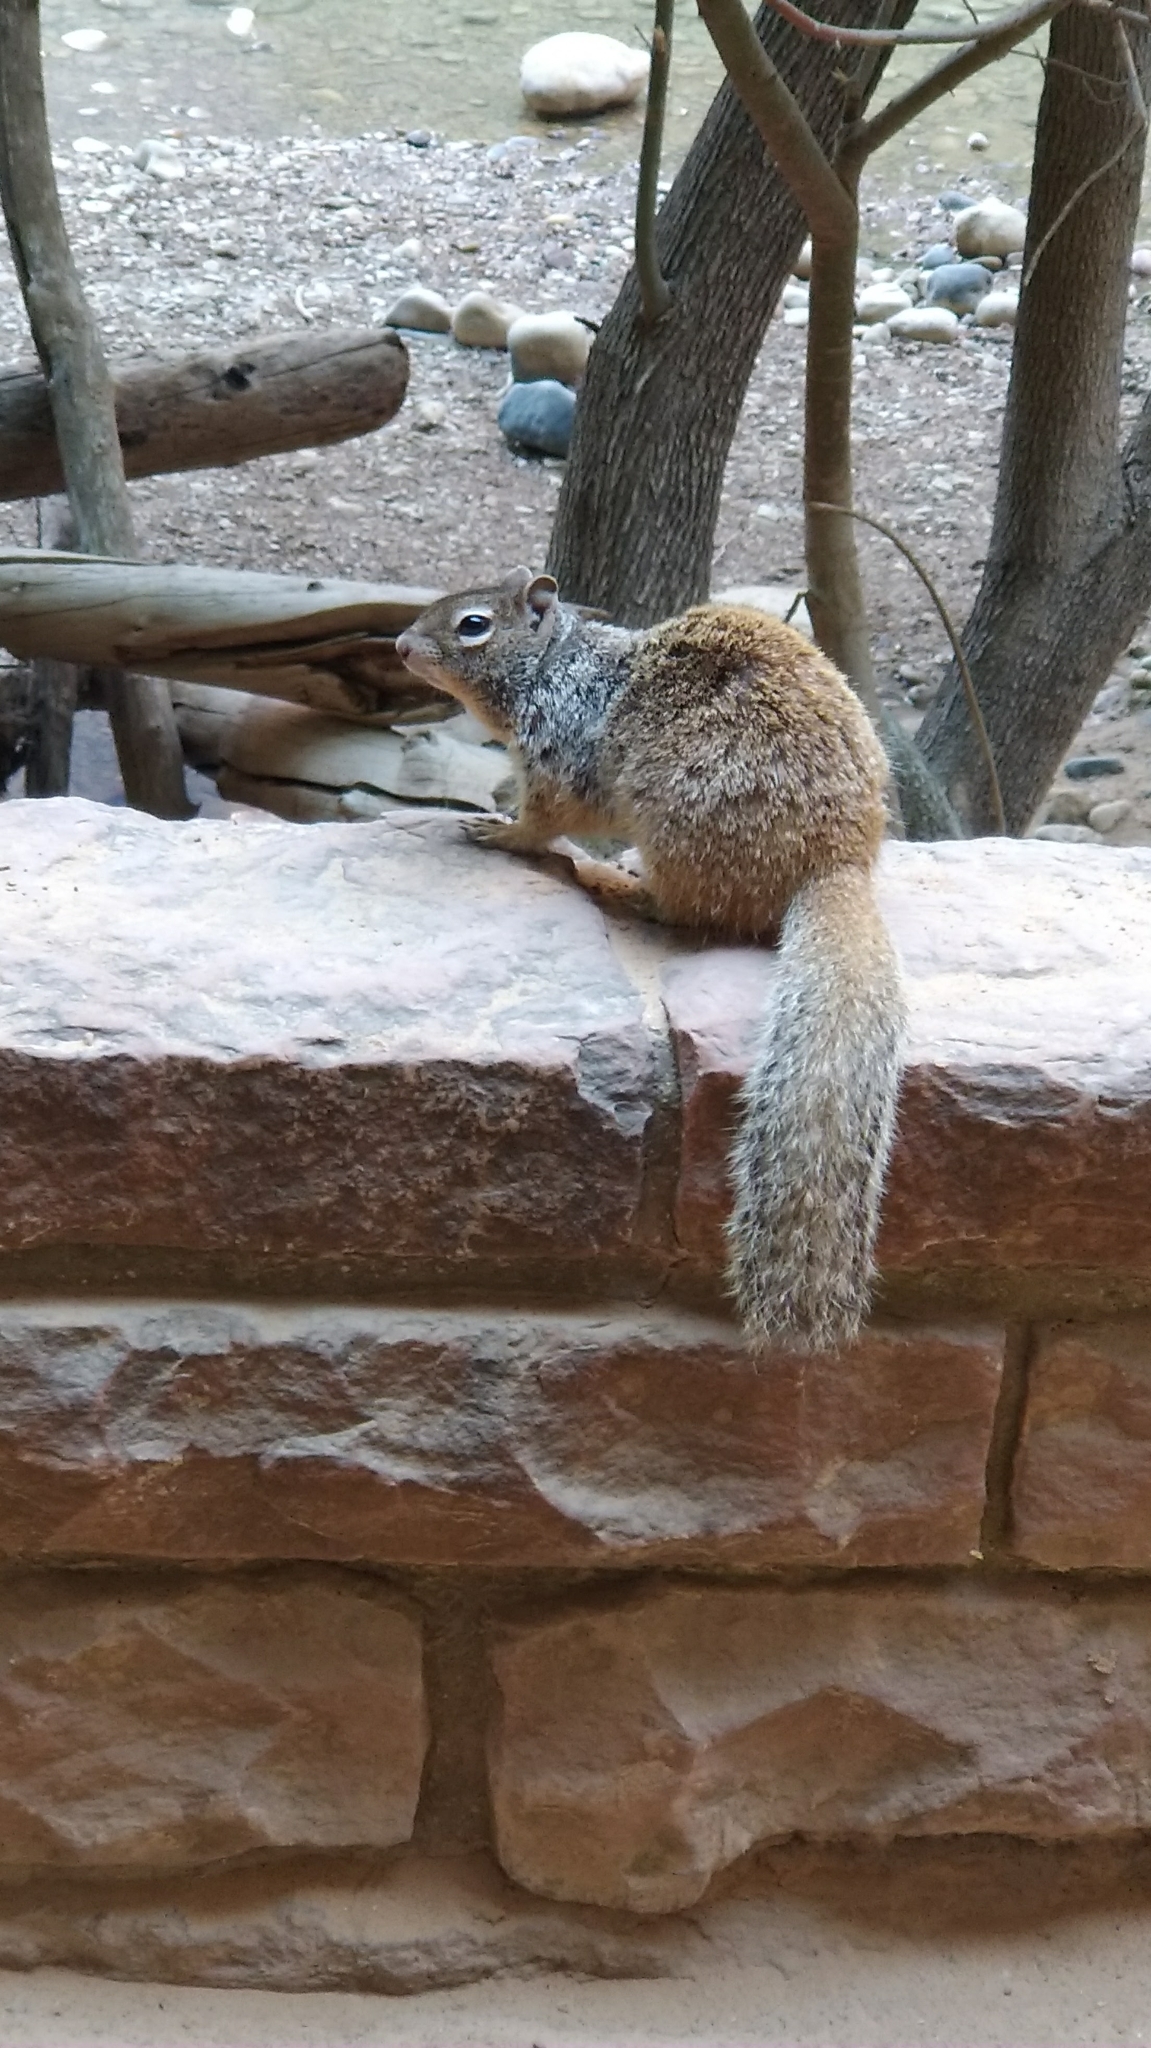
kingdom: Animalia
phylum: Chordata
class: Mammalia
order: Rodentia
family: Sciuridae
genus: Otospermophilus
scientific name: Otospermophilus variegatus
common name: Rock squirrel
